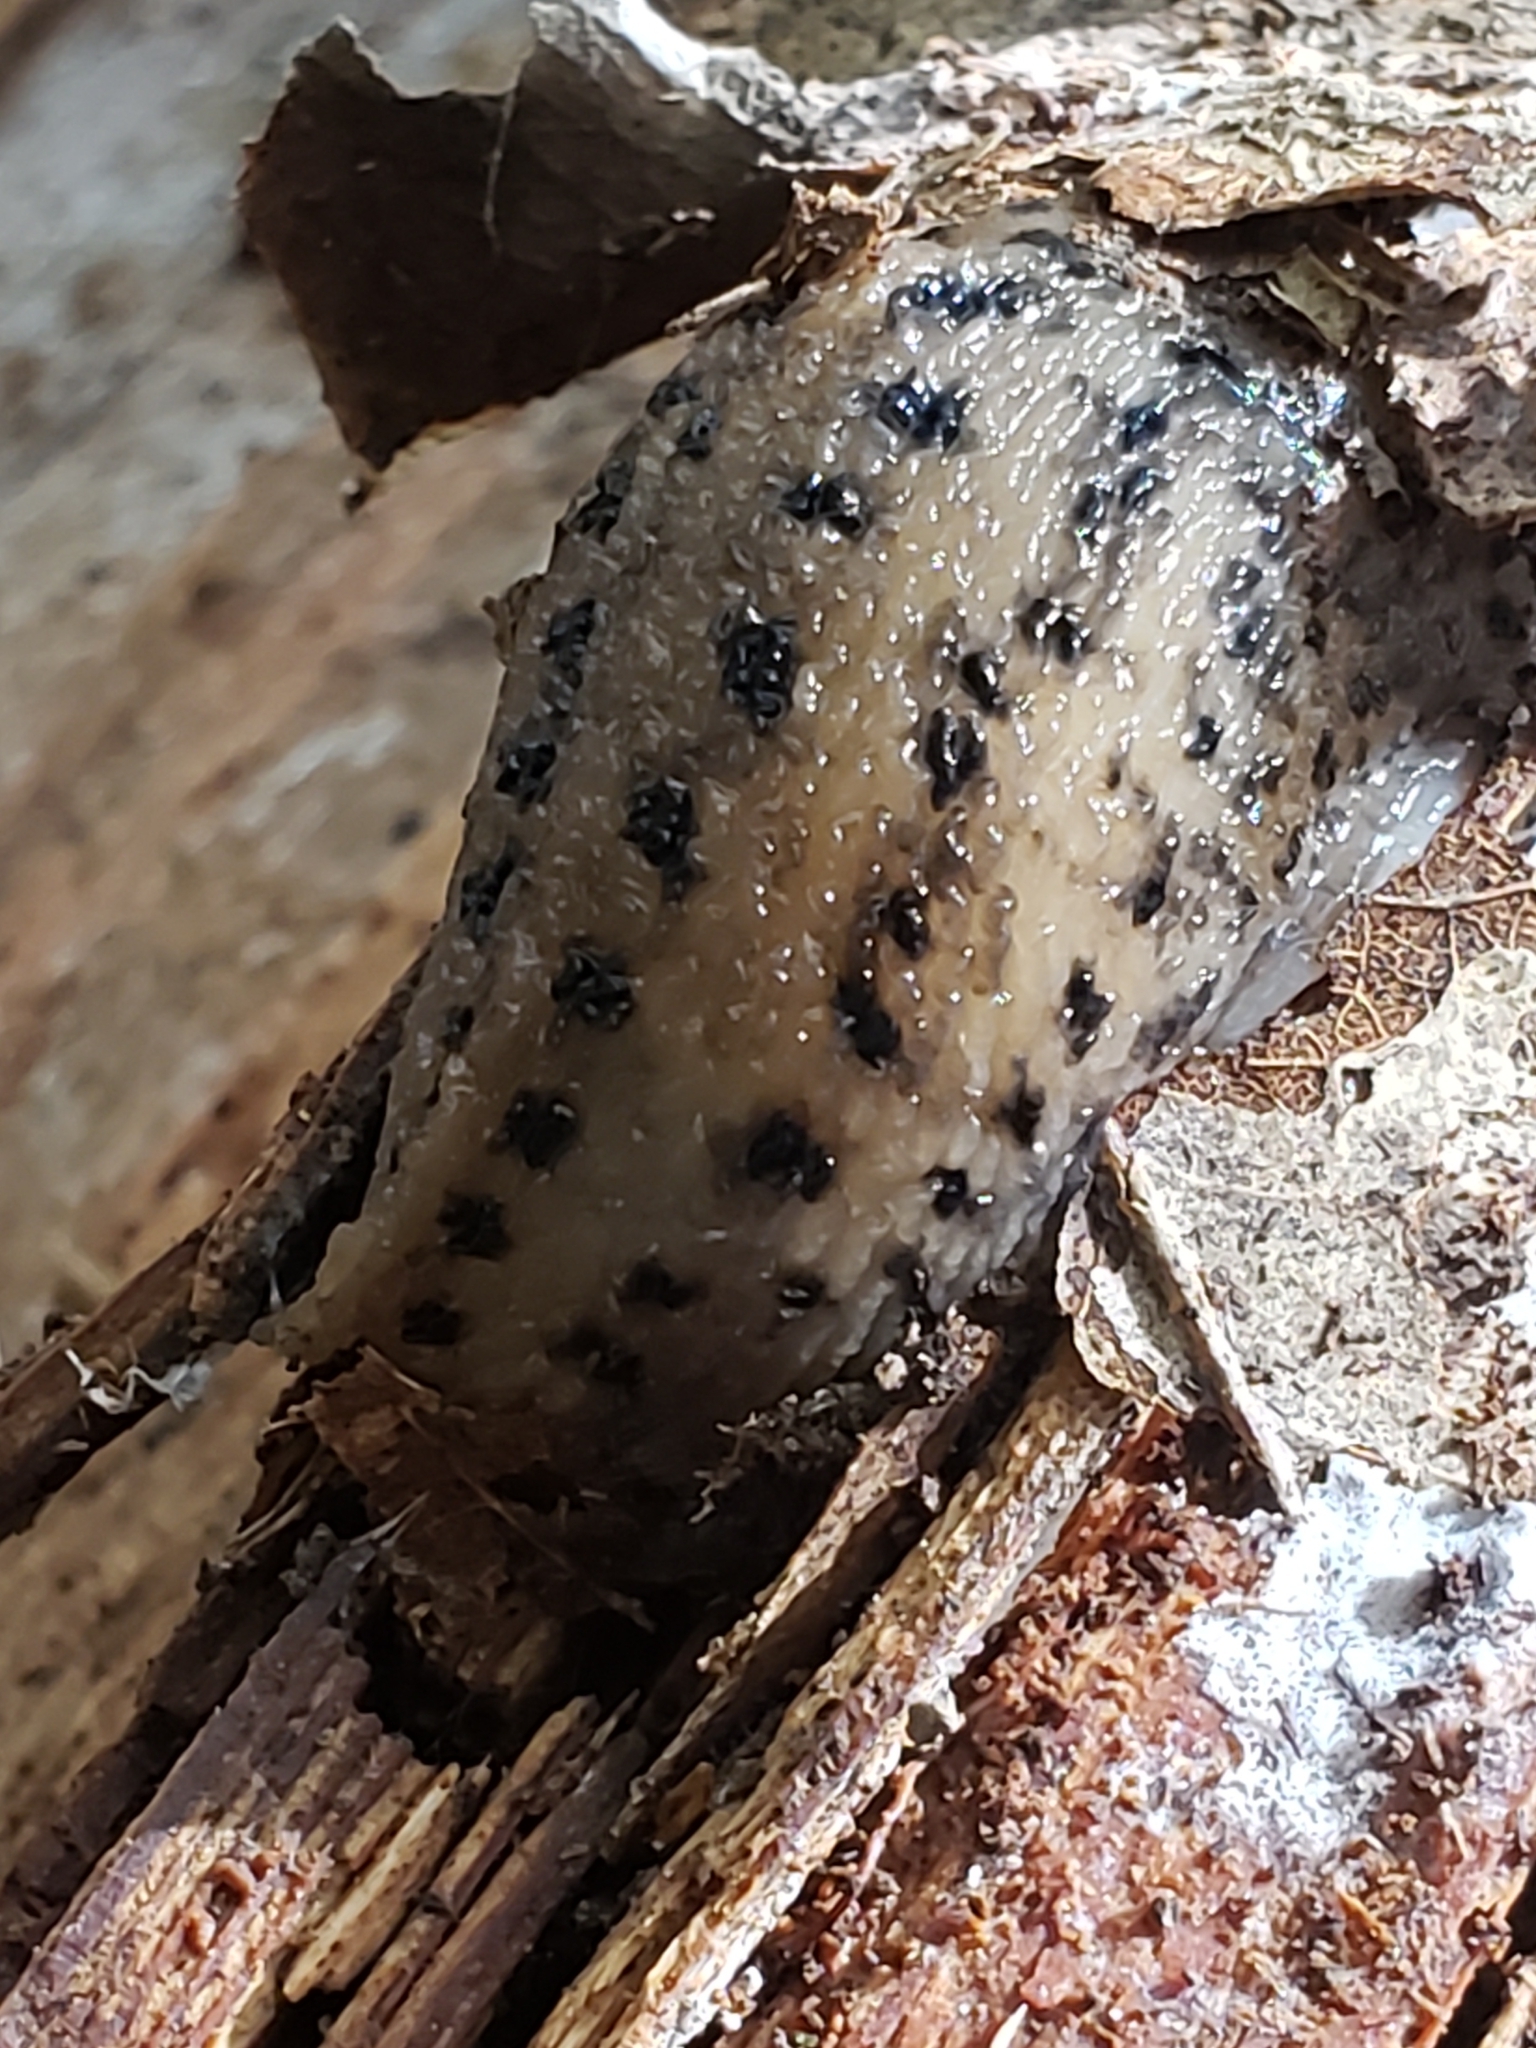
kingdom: Animalia
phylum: Mollusca
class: Gastropoda
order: Stylommatophora
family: Limacidae
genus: Limax
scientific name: Limax maximus
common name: Great grey slug
